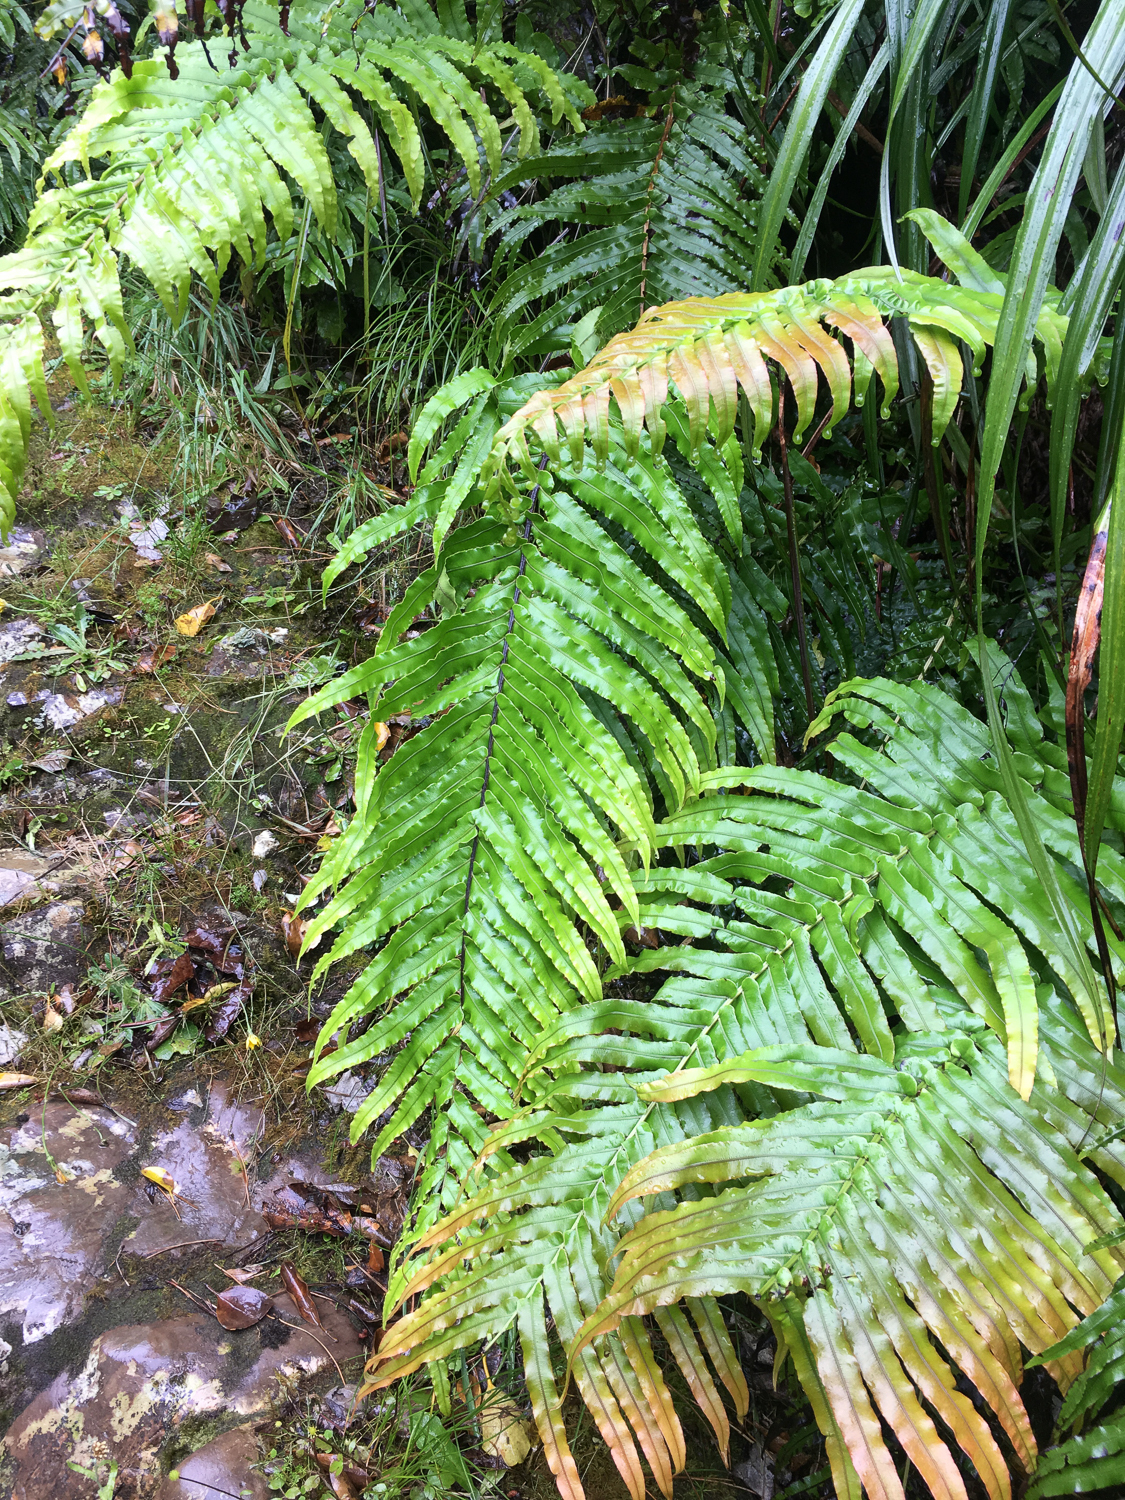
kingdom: Plantae
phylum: Tracheophyta
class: Polypodiopsida
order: Polypodiales
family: Blechnaceae
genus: Parablechnum
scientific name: Parablechnum novae-zelandiae
